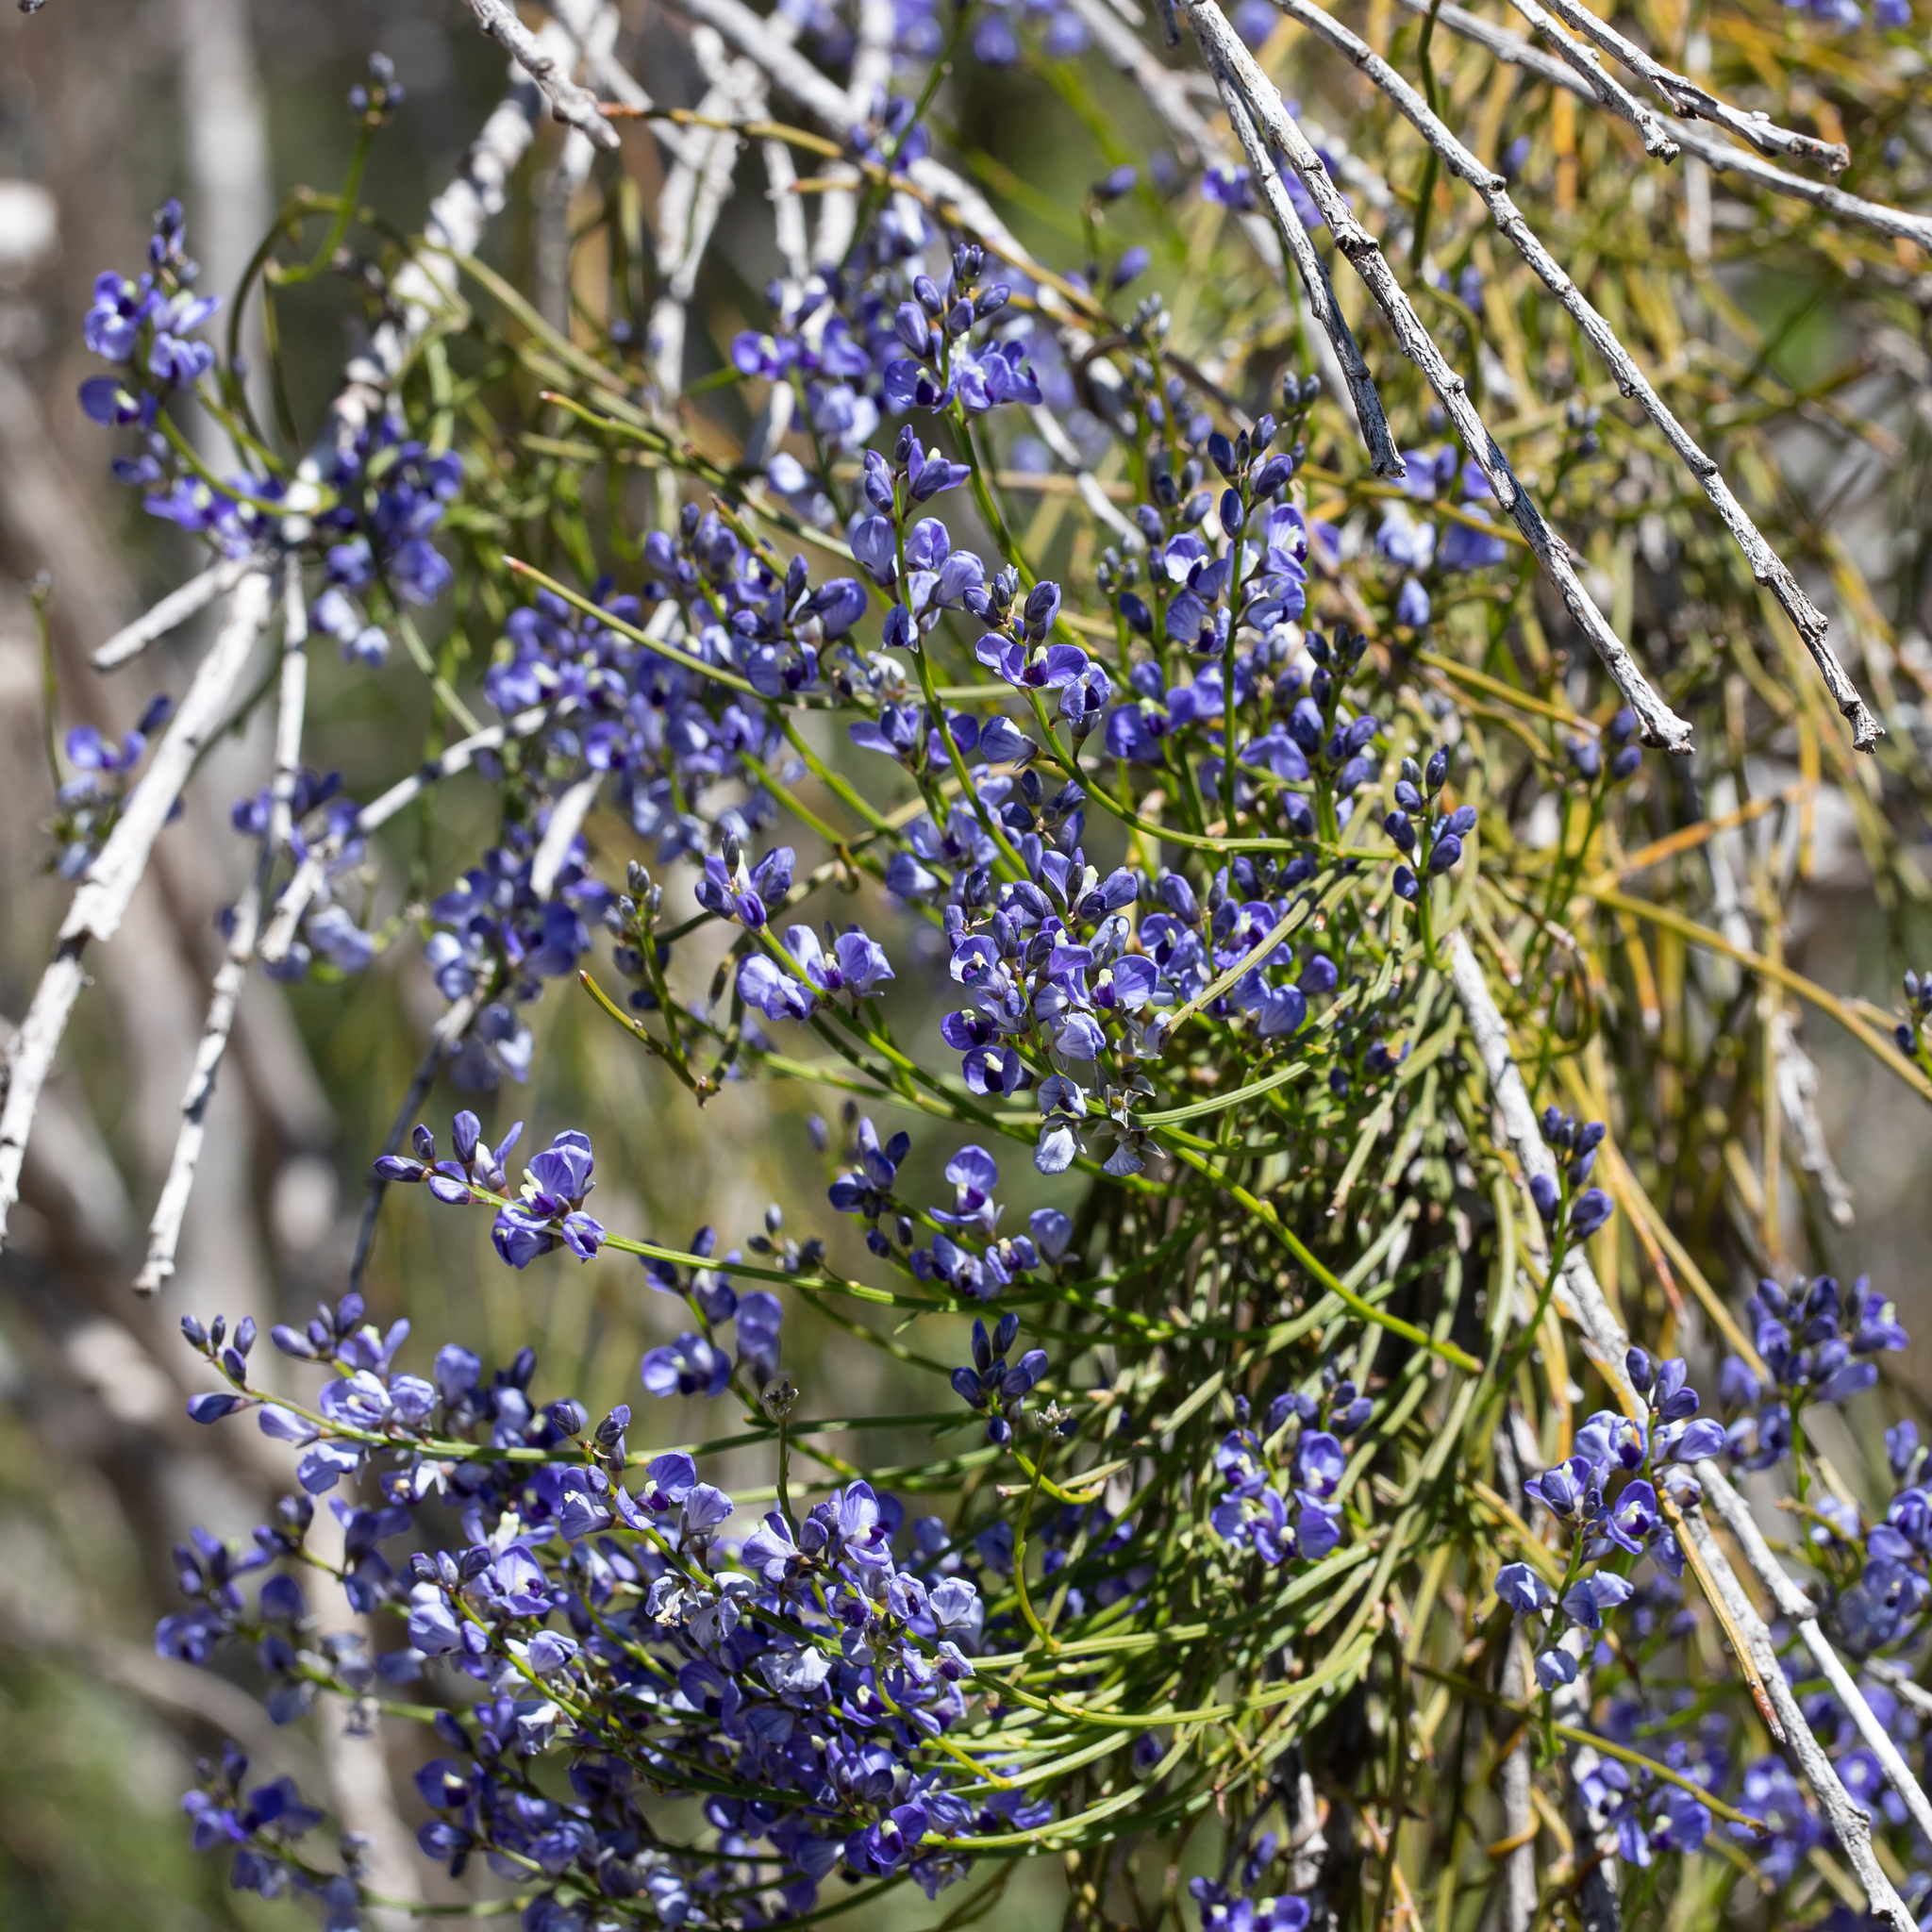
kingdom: Plantae
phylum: Tracheophyta
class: Magnoliopsida
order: Fabales
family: Polygalaceae
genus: Comesperma
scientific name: Comesperma volubile
